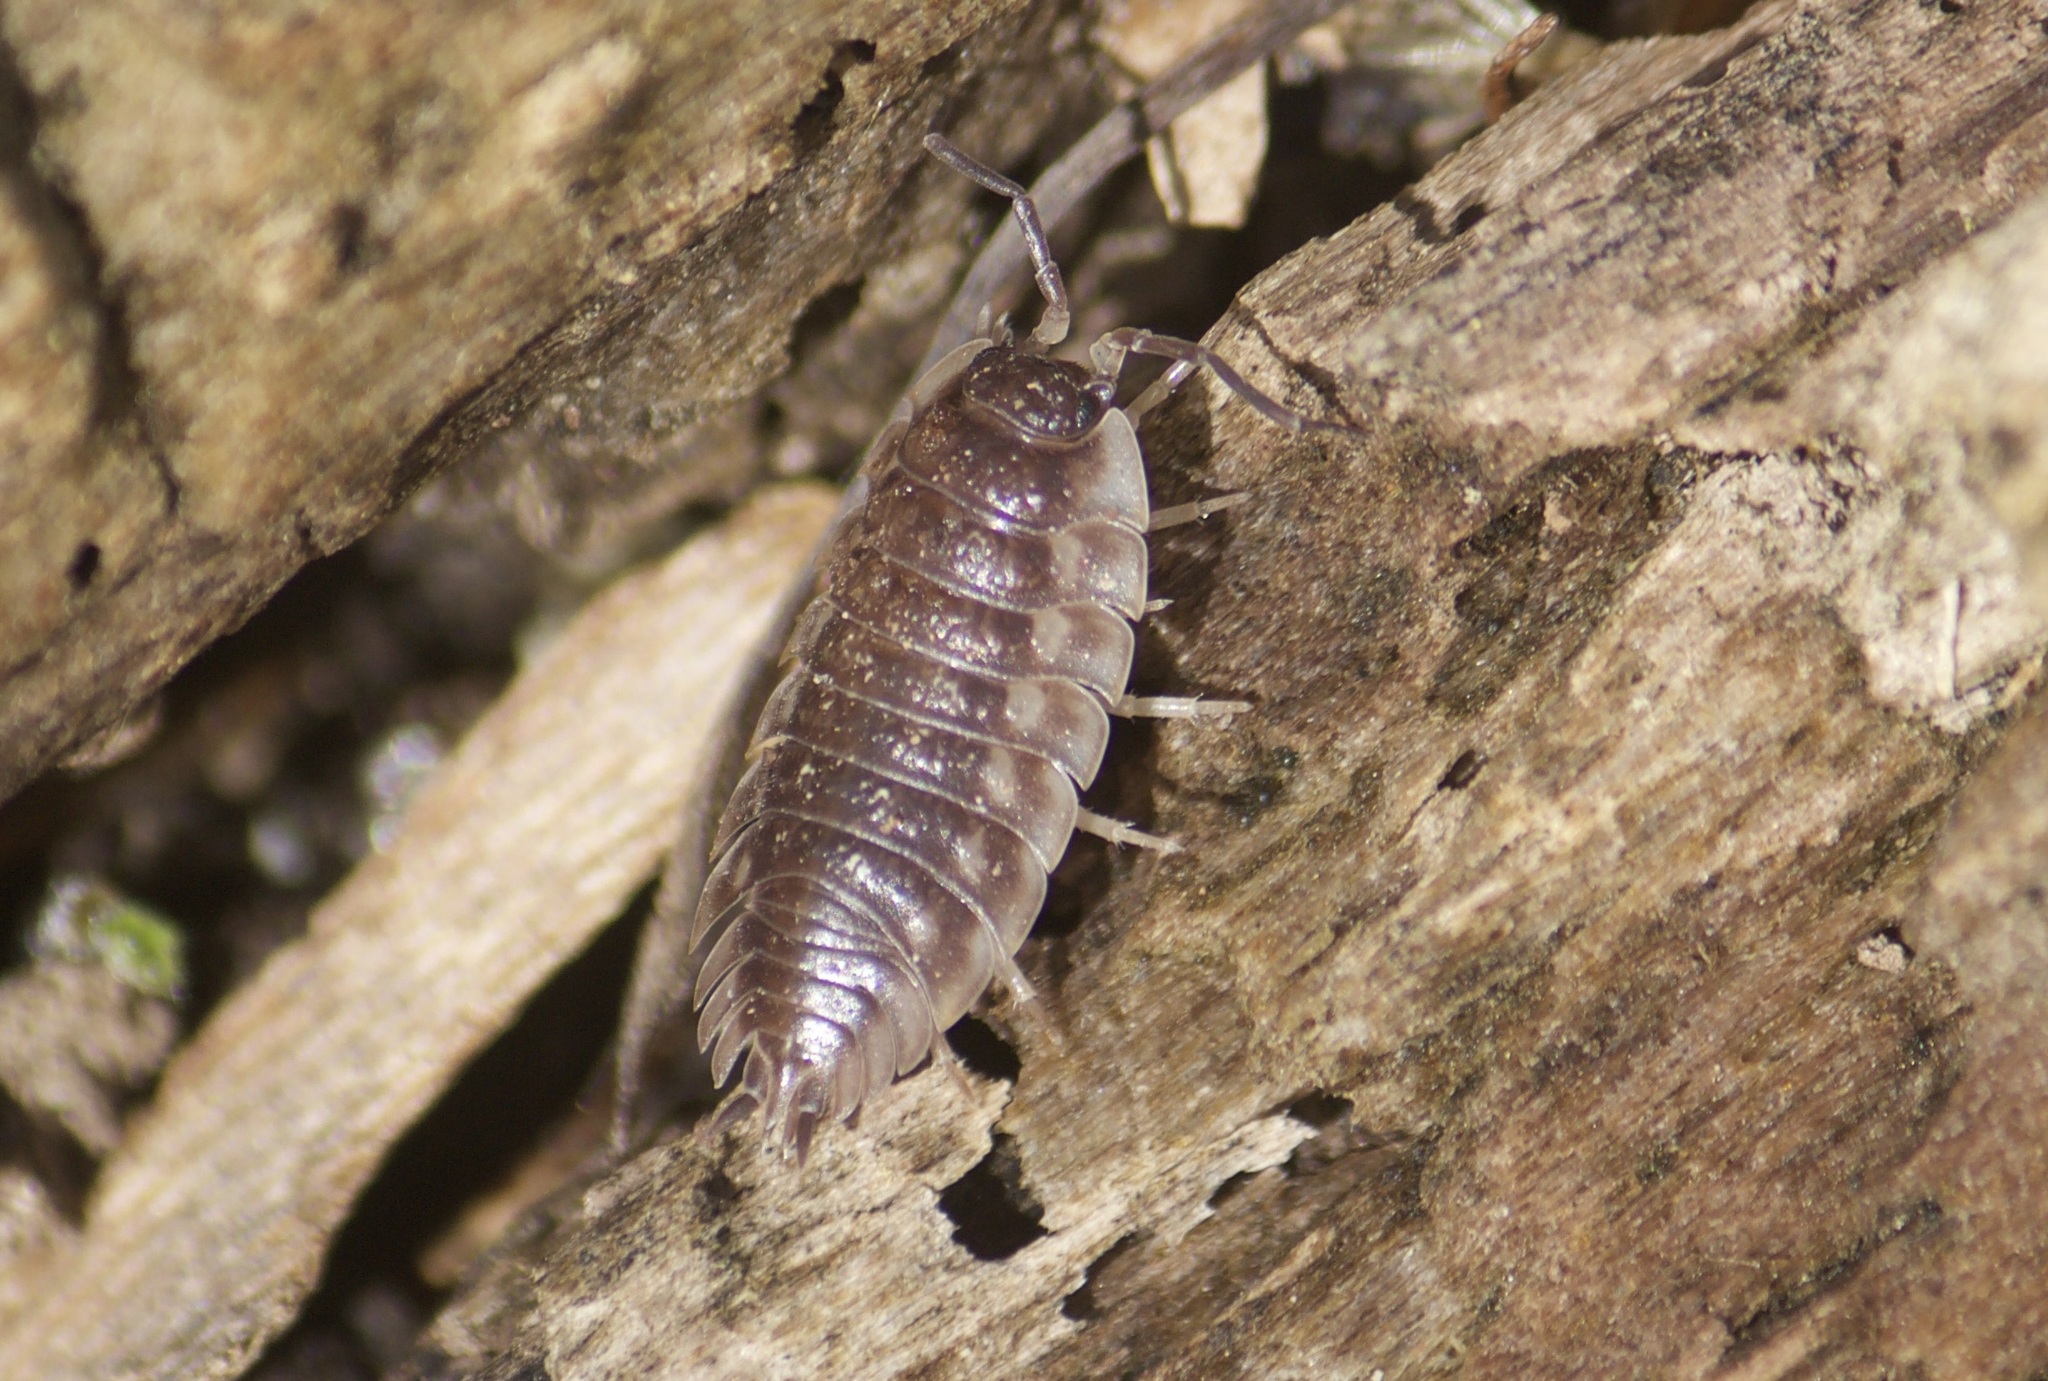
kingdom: Animalia
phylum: Arthropoda
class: Malacostraca
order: Isopoda
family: Oniscidae
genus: Oniscus
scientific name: Oniscus asellus
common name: Common shiny woodlouse
